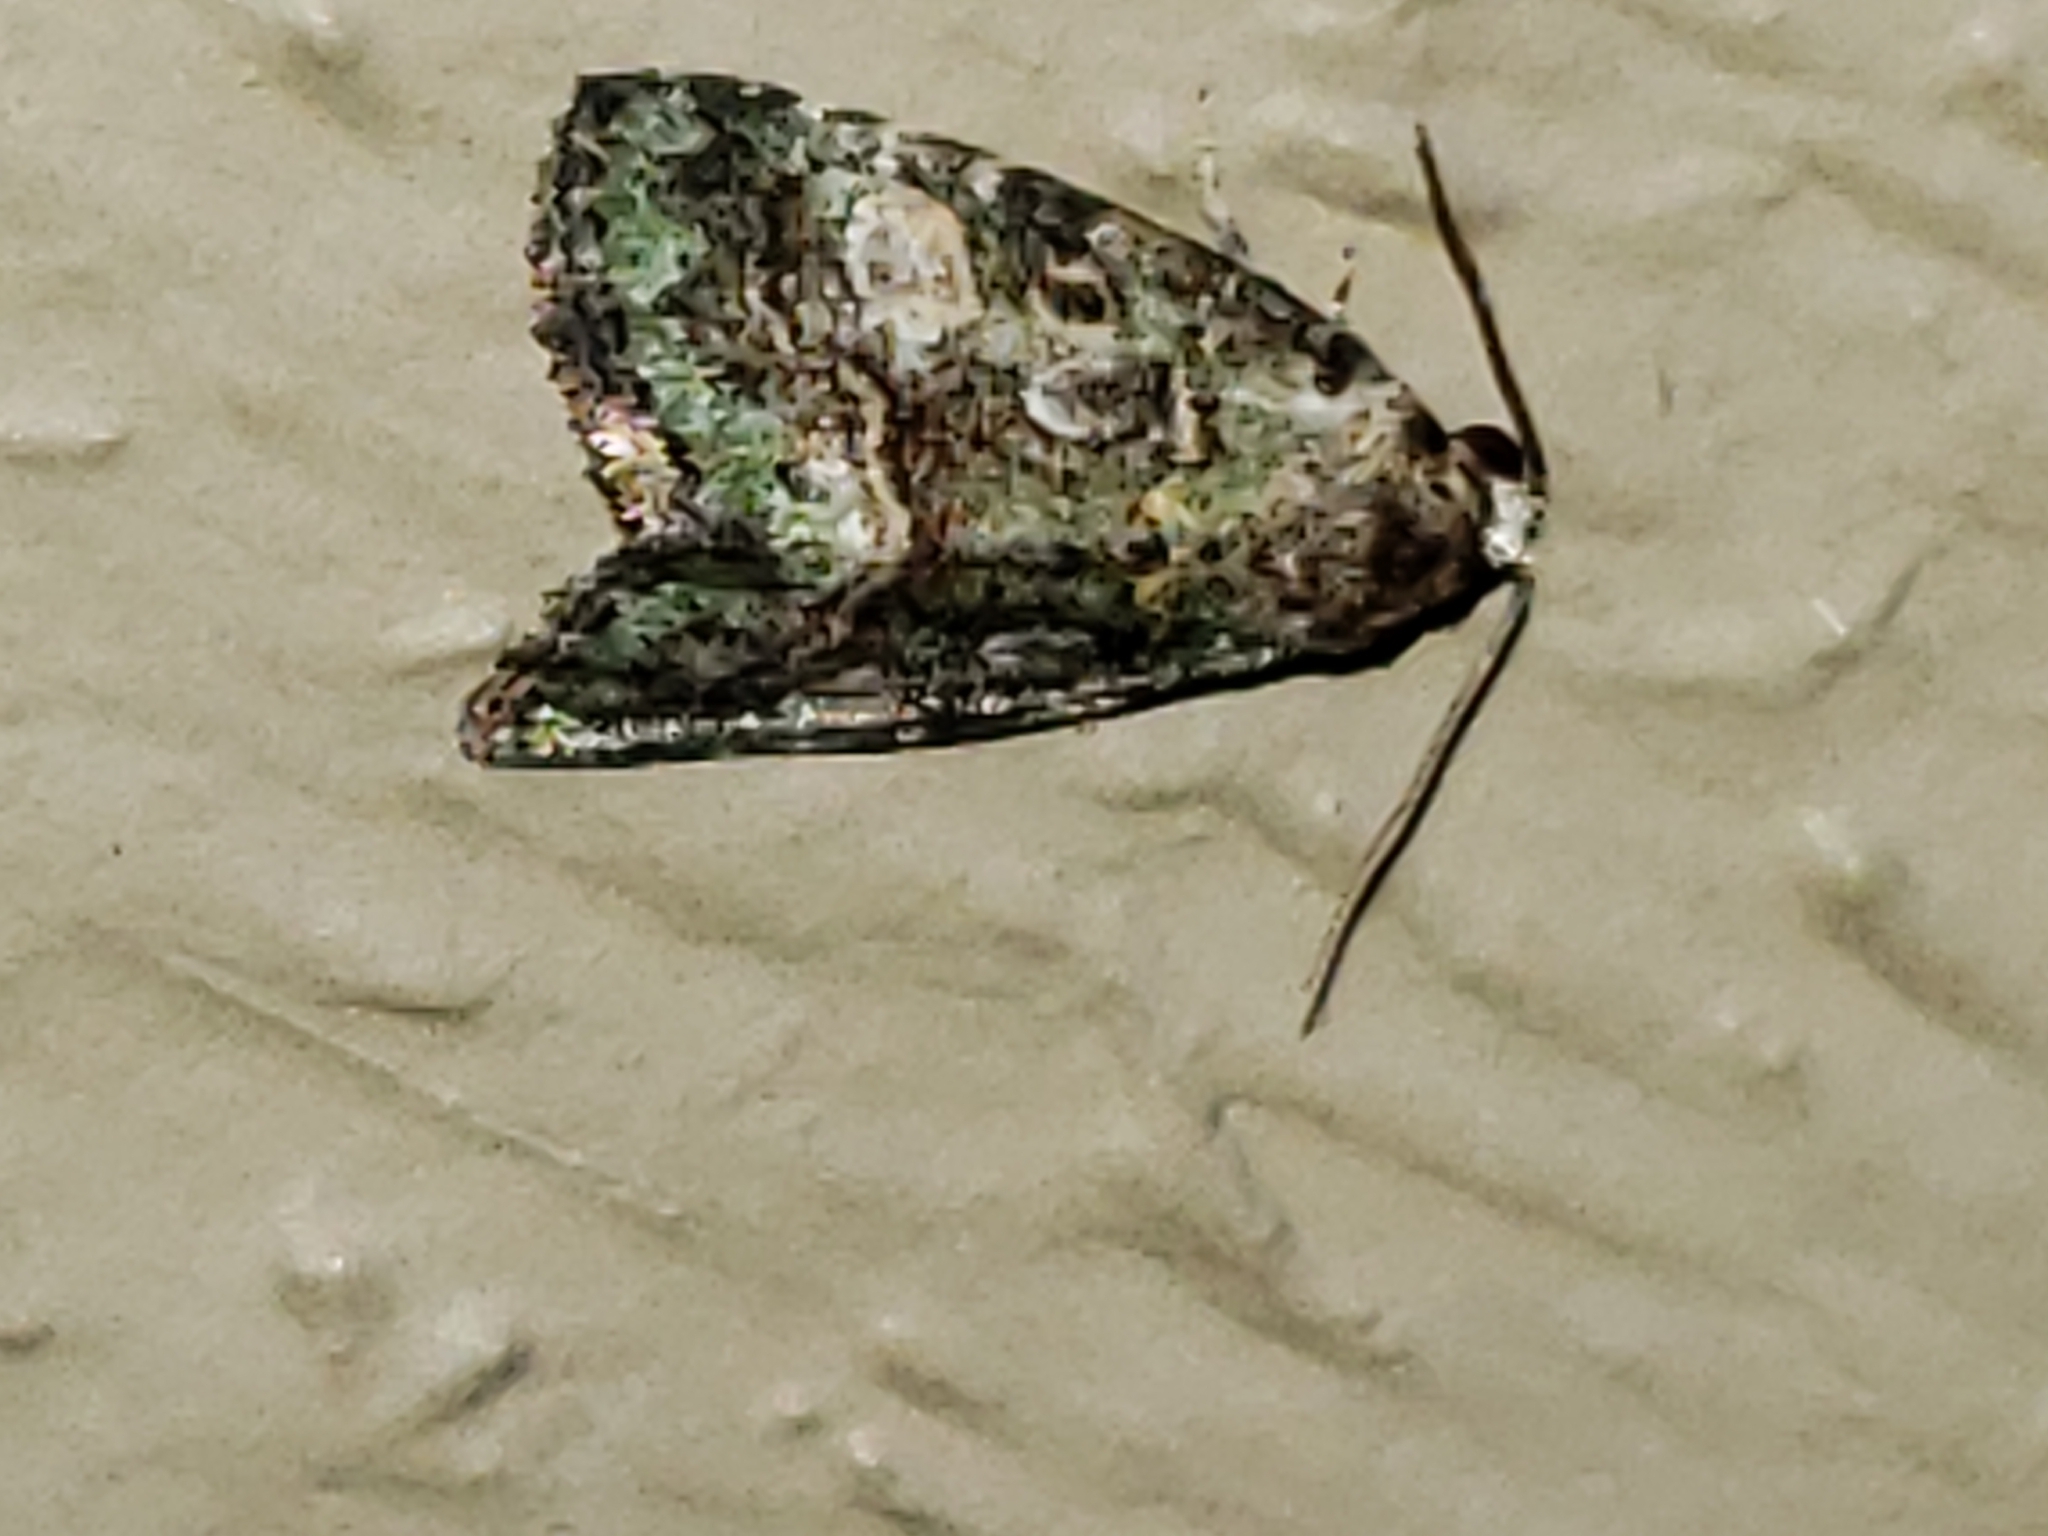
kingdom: Animalia
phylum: Arthropoda
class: Insecta
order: Lepidoptera
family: Noctuidae
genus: Lithacodia
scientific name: Lithacodia musta
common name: Small mossy glyph
